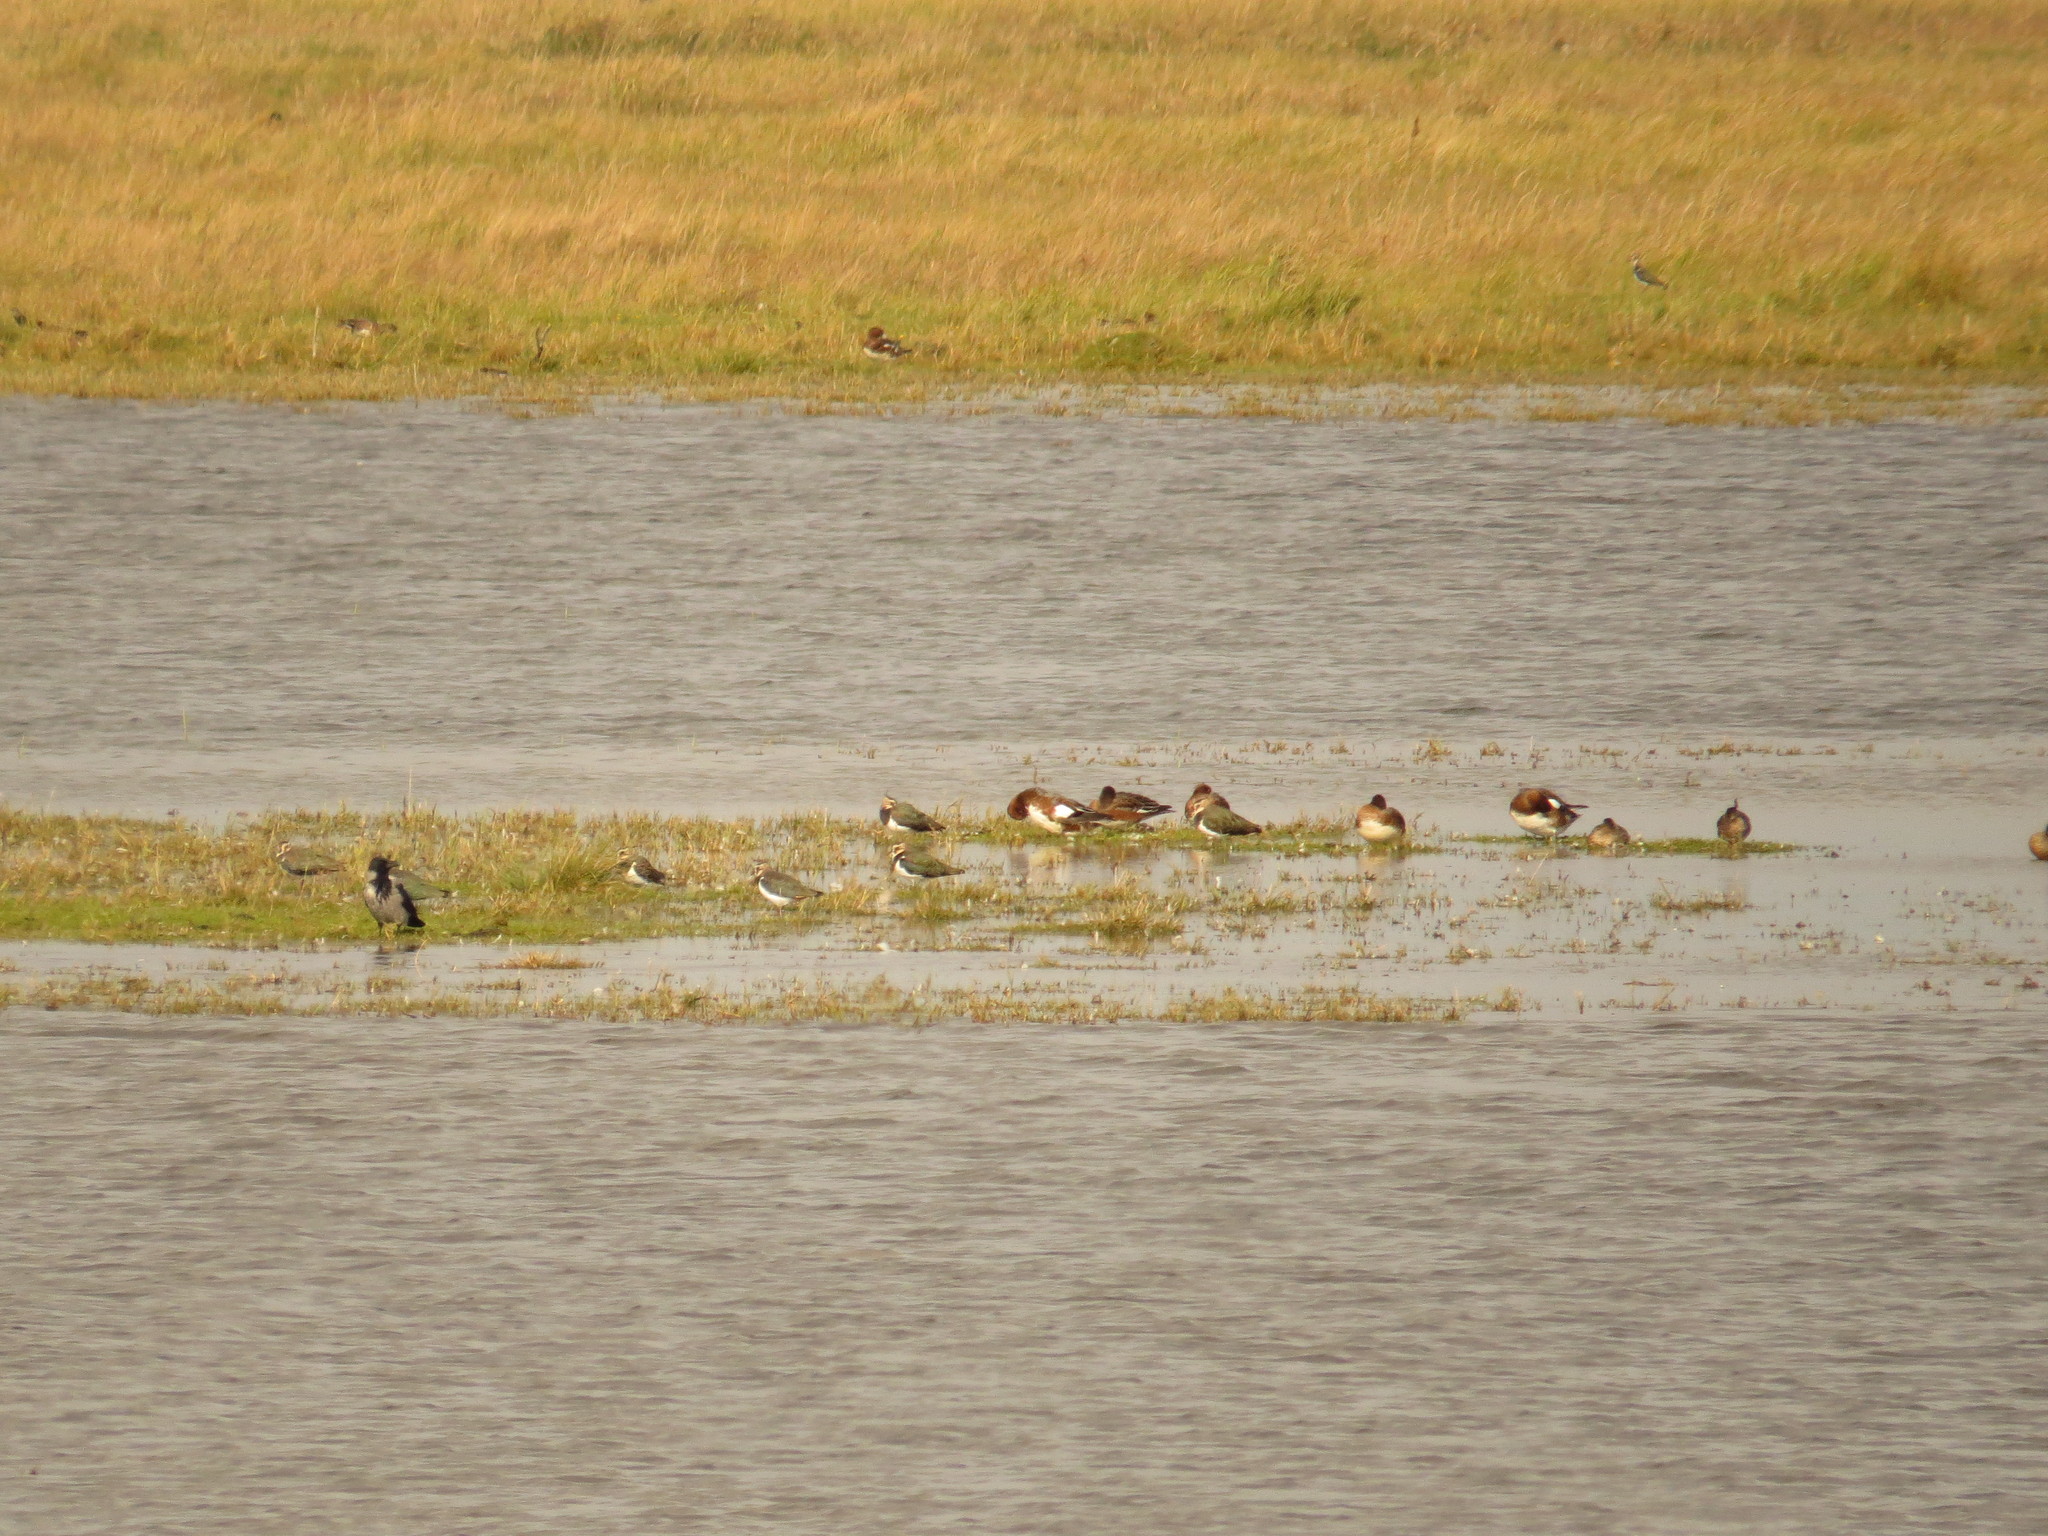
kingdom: Animalia
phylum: Chordata
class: Aves
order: Passeriformes
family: Corvidae
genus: Corvus
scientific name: Corvus cornix
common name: Hooded crow
